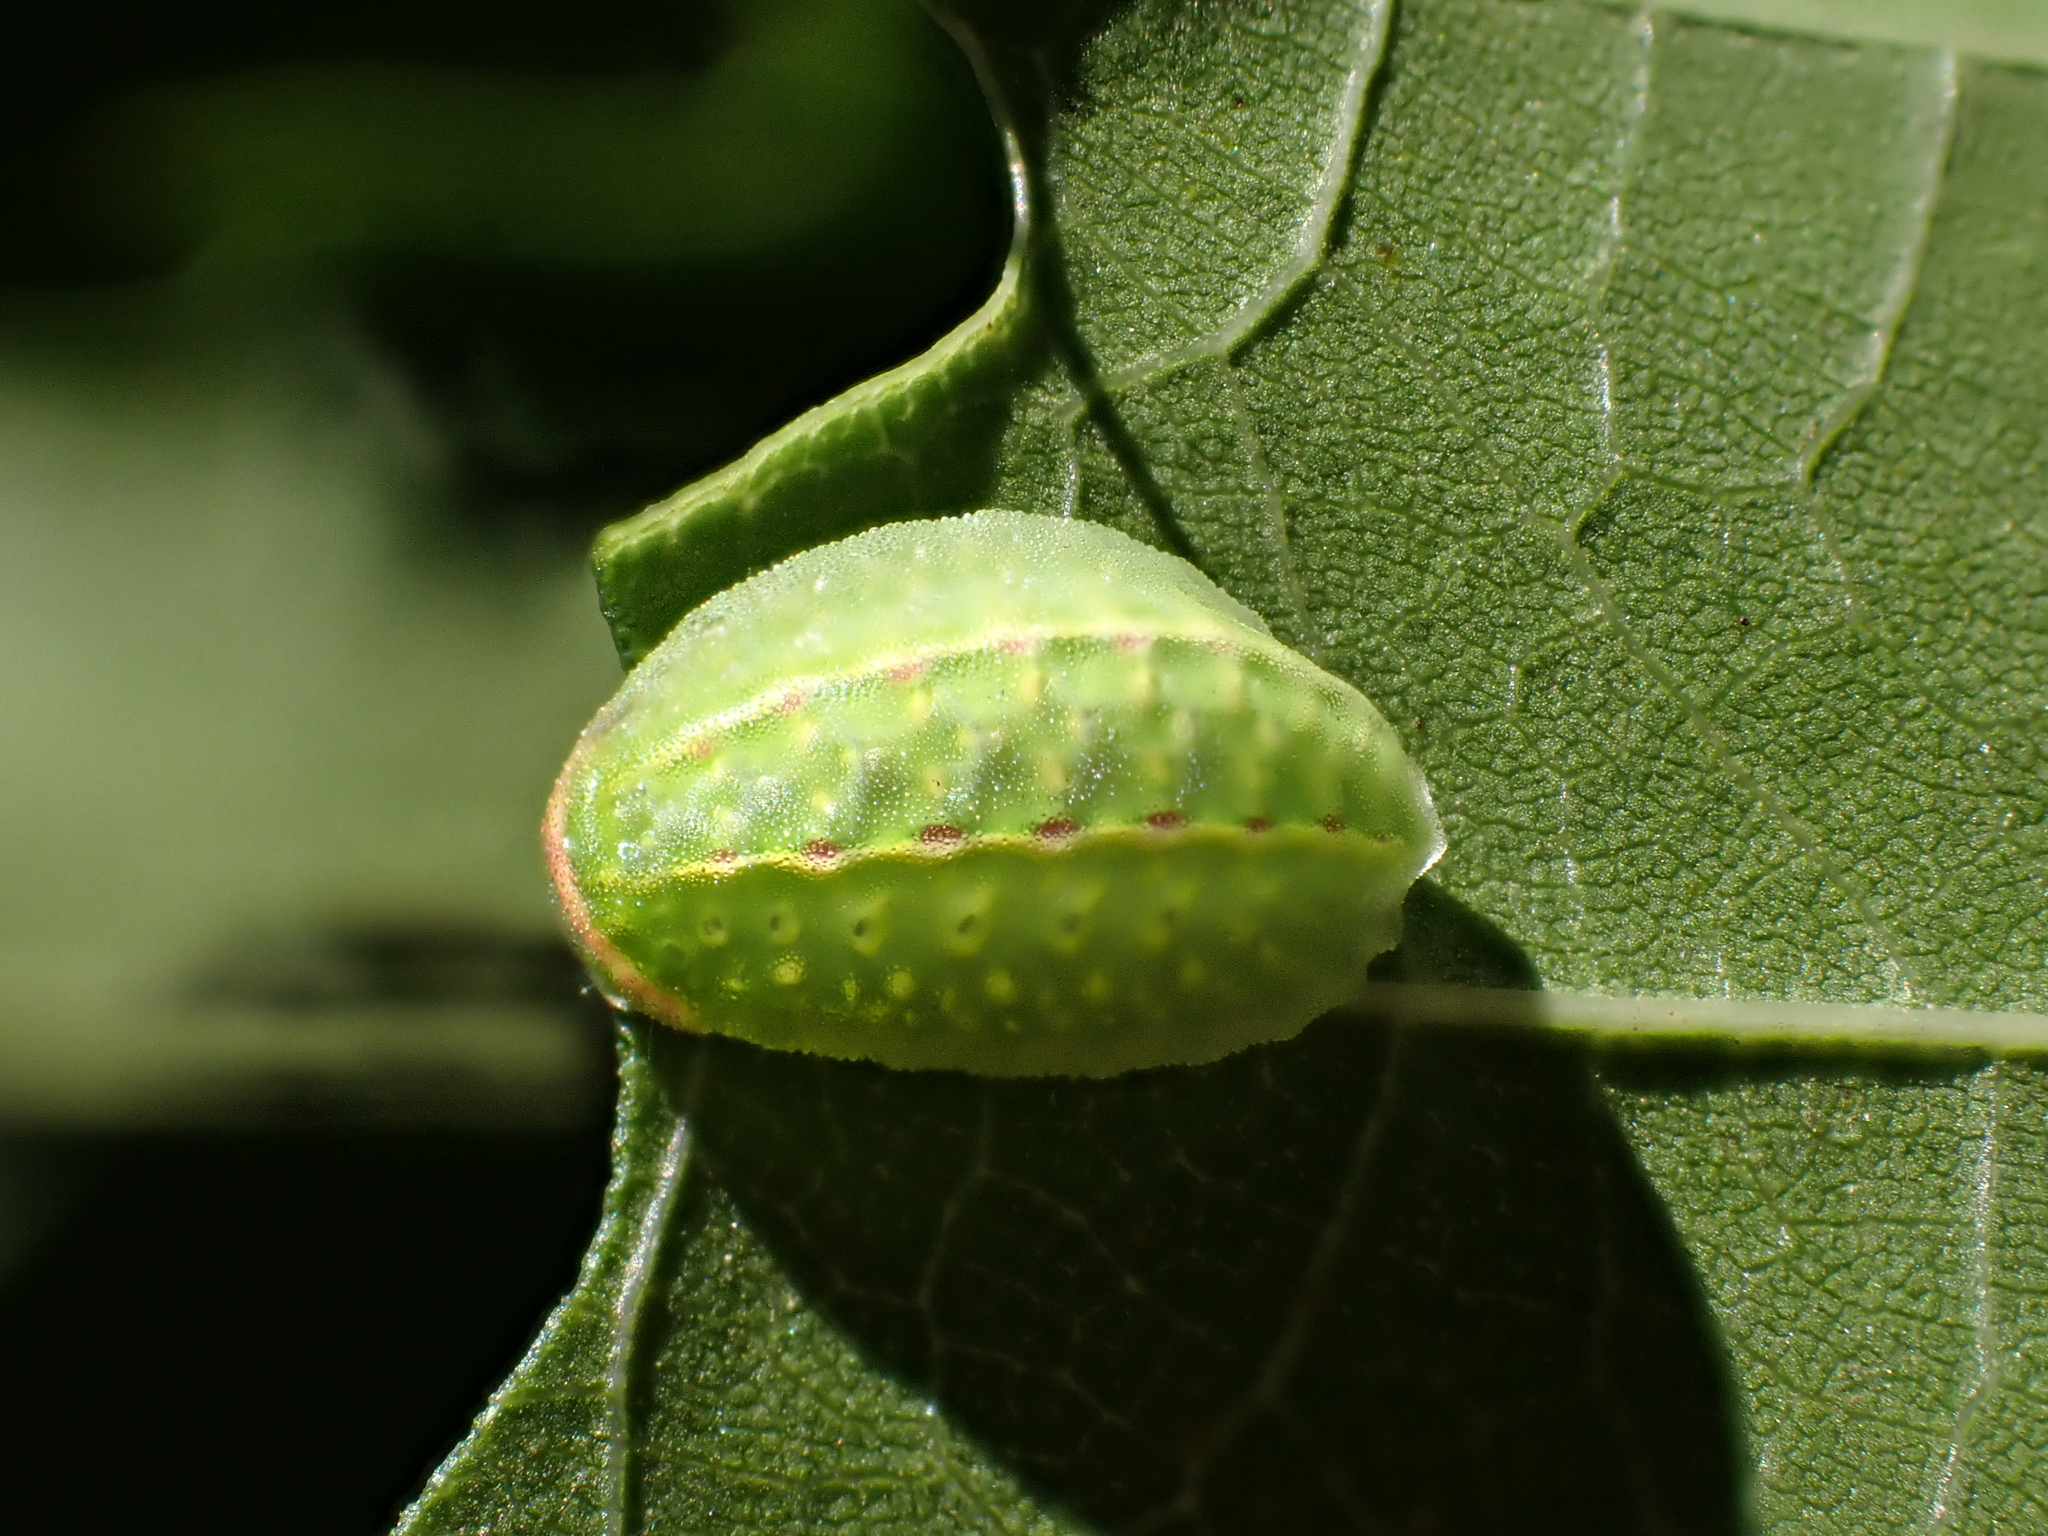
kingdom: Animalia
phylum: Arthropoda
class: Insecta
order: Lepidoptera
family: Limacodidae
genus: Apoda
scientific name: Apoda limacodes
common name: Festoon
